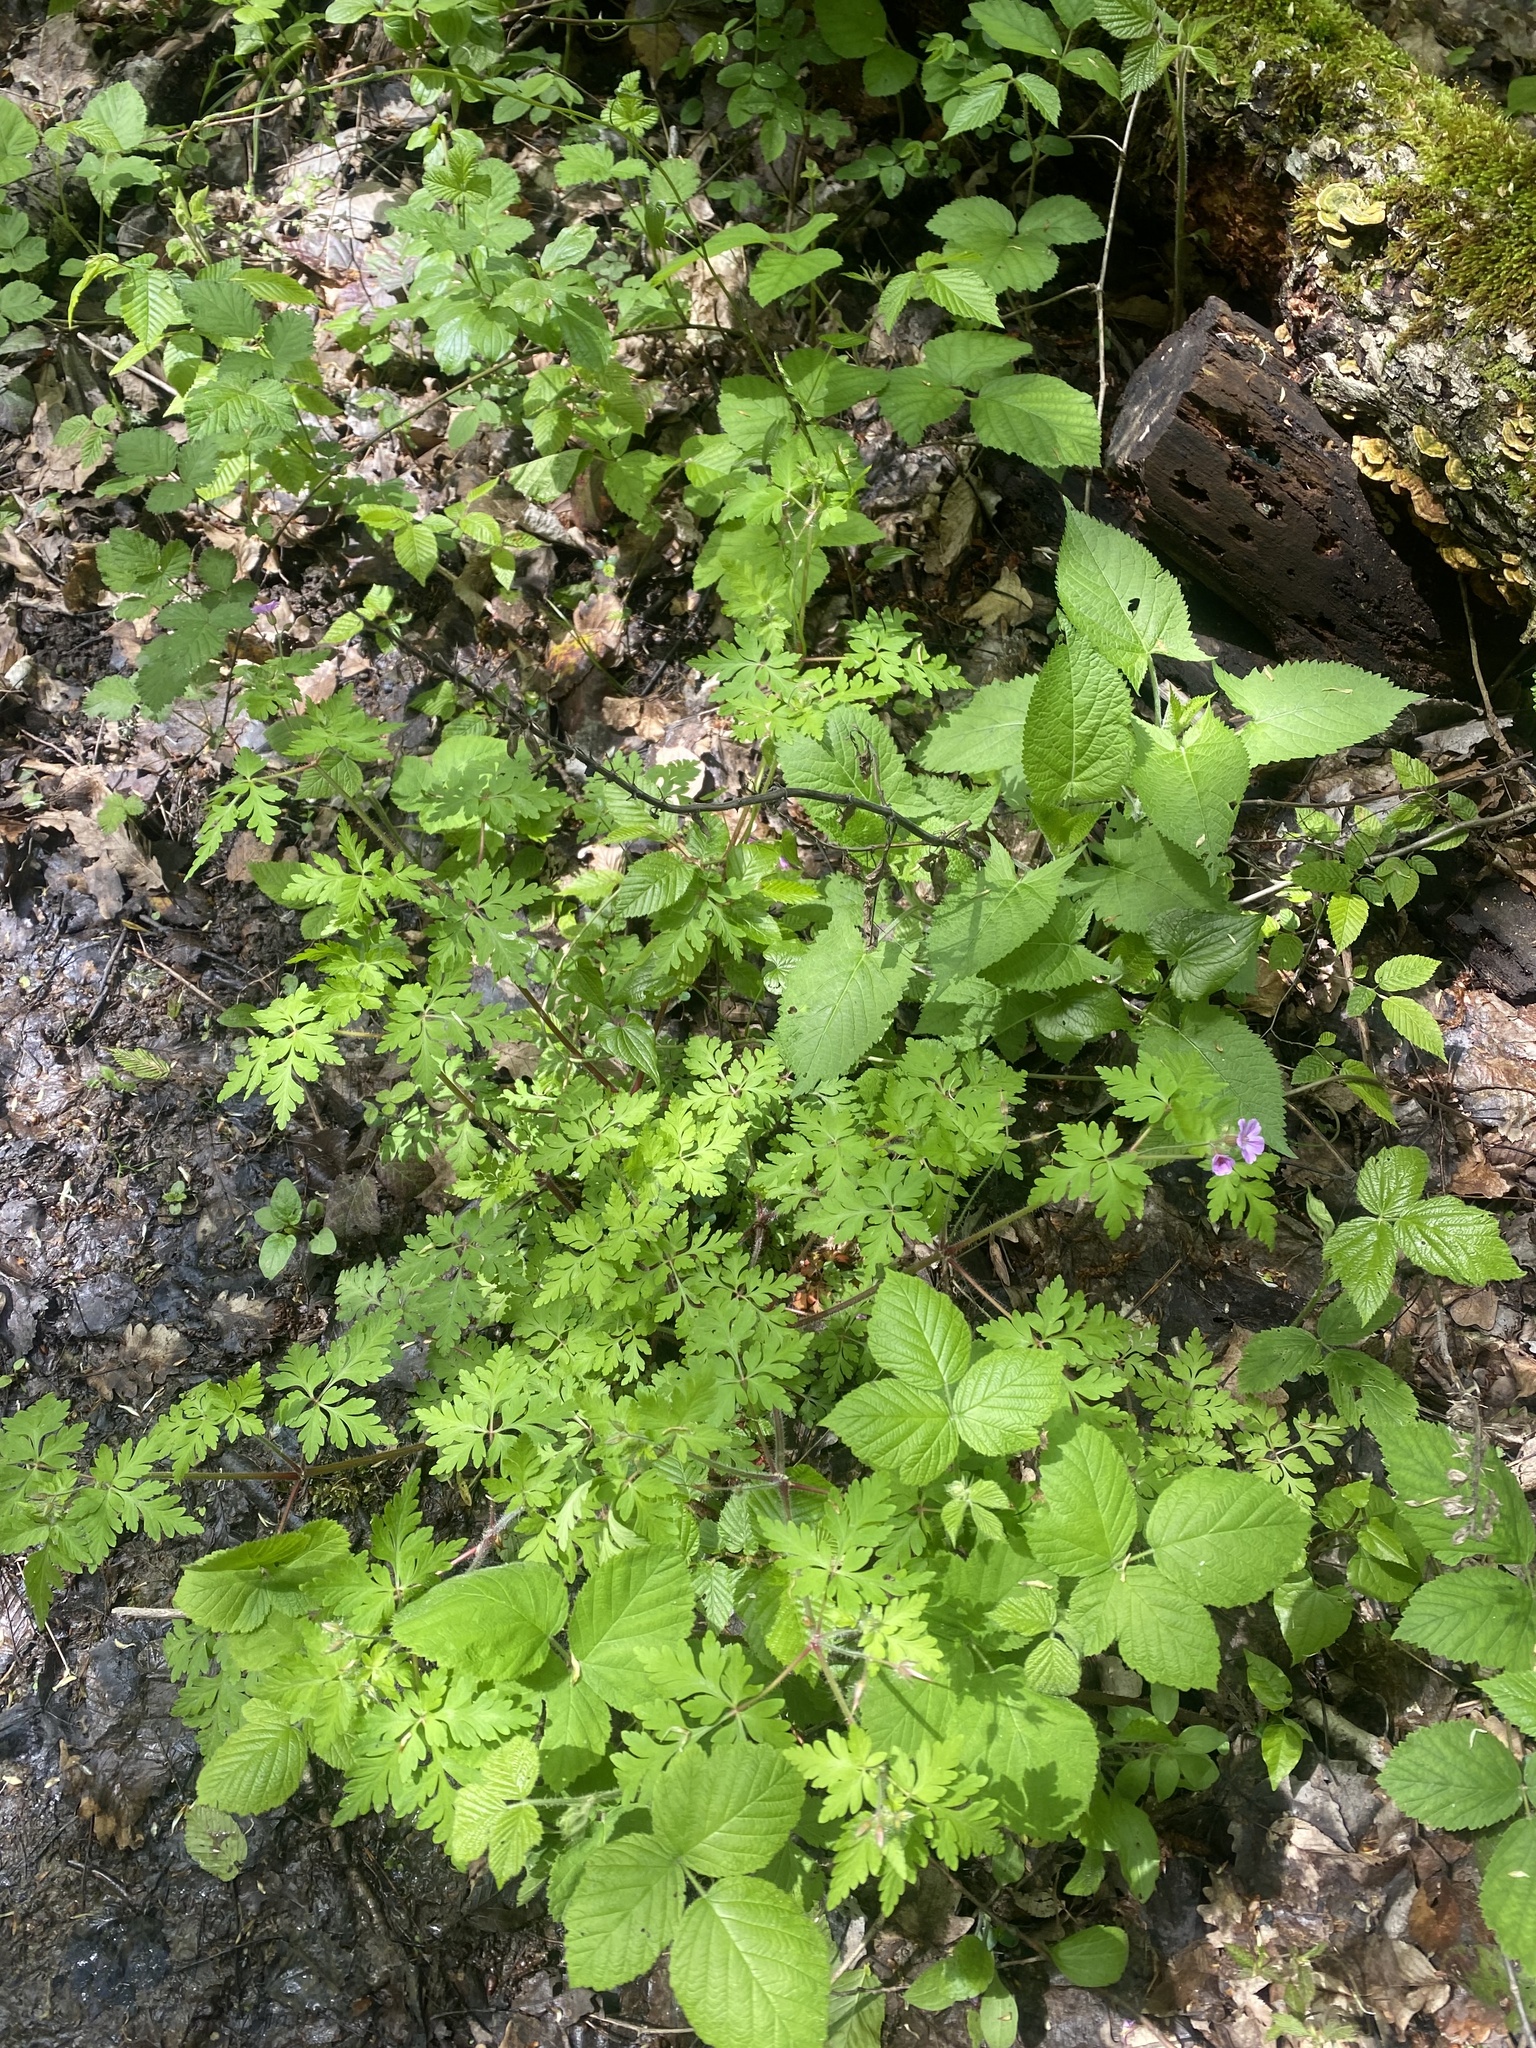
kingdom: Plantae
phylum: Tracheophyta
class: Magnoliopsida
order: Geraniales
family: Geraniaceae
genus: Geranium
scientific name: Geranium robertianum
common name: Herb-robert
